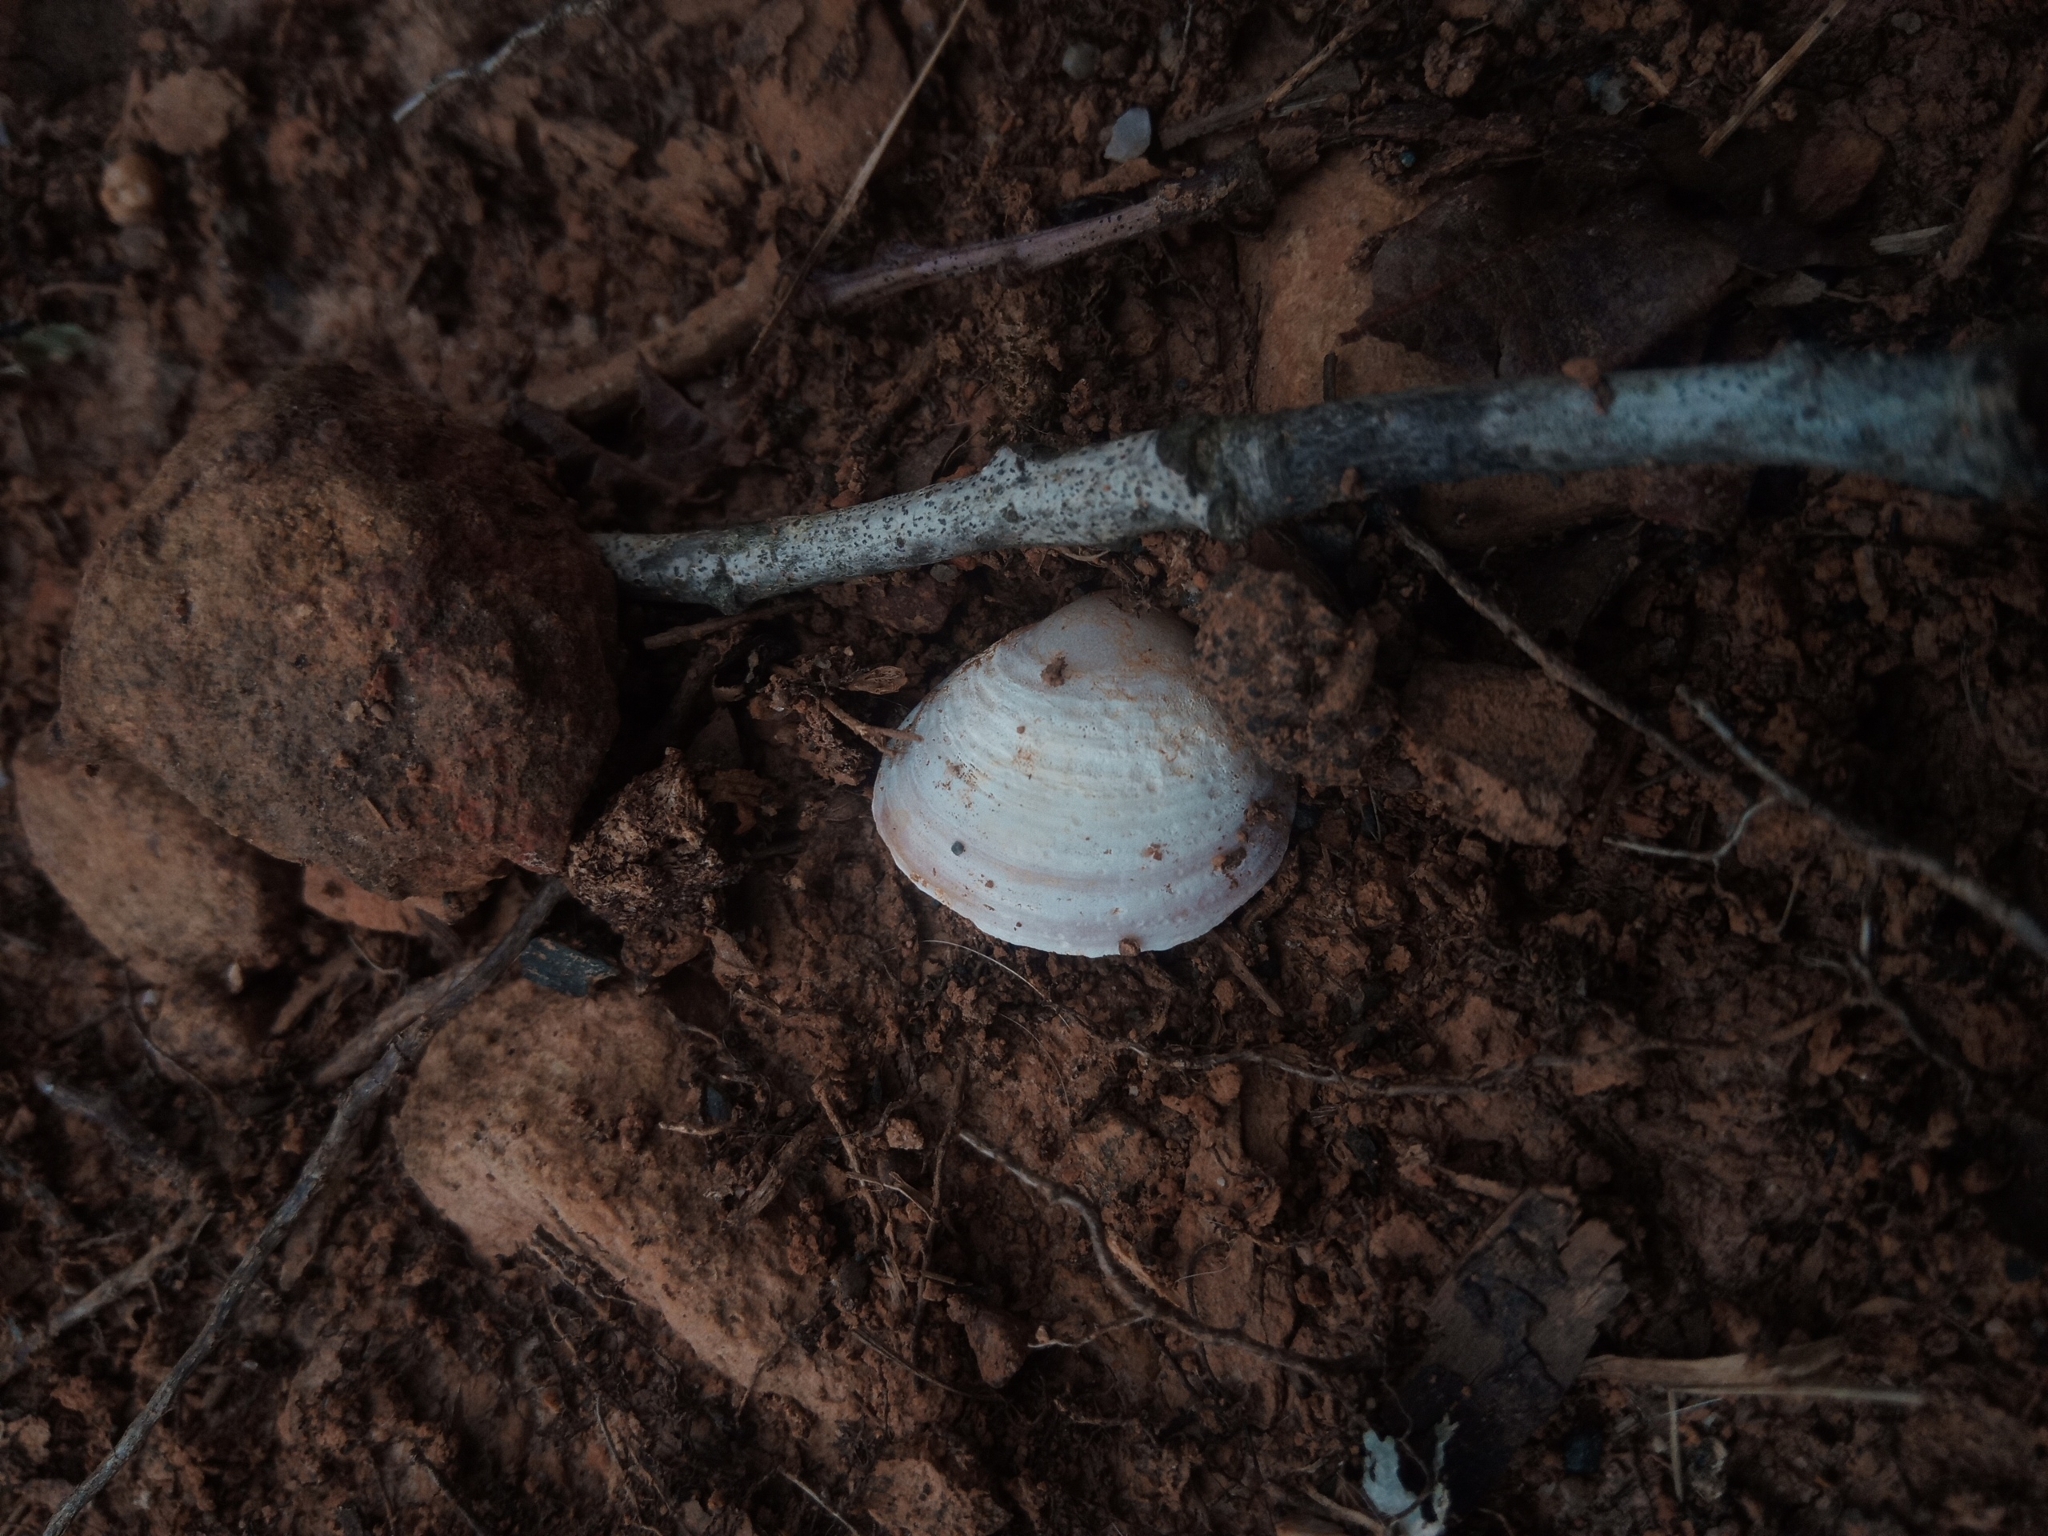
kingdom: Animalia
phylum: Mollusca
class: Bivalvia
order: Venerida
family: Cyrenidae
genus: Corbicula
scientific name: Corbicula fluminea
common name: Asian clam
